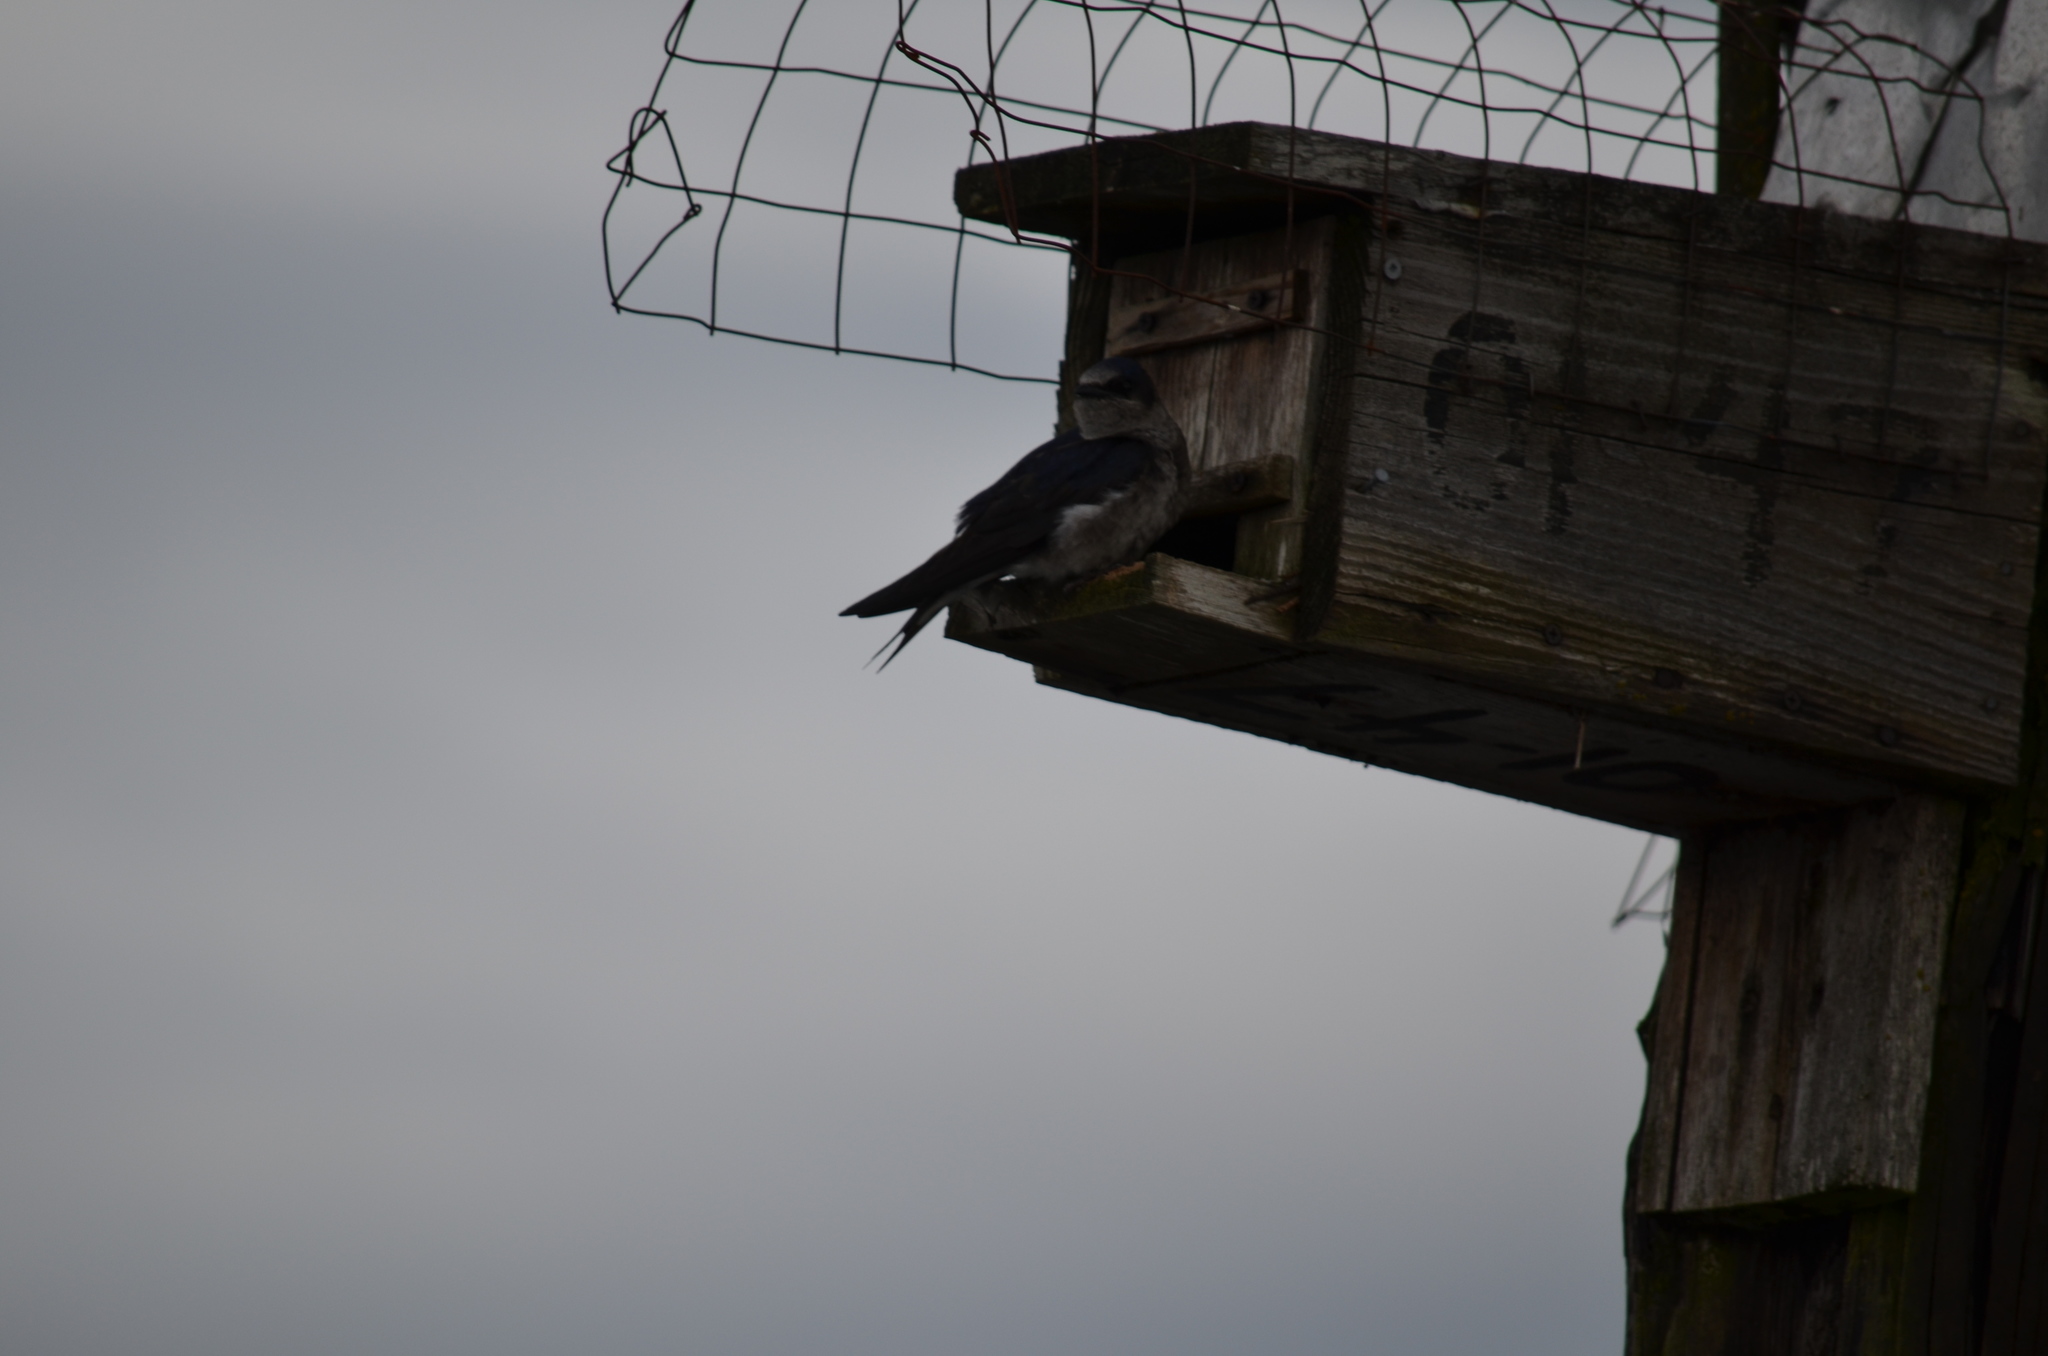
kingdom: Animalia
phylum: Chordata
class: Aves
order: Passeriformes
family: Hirundinidae
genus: Progne
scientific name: Progne subis
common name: Purple martin
